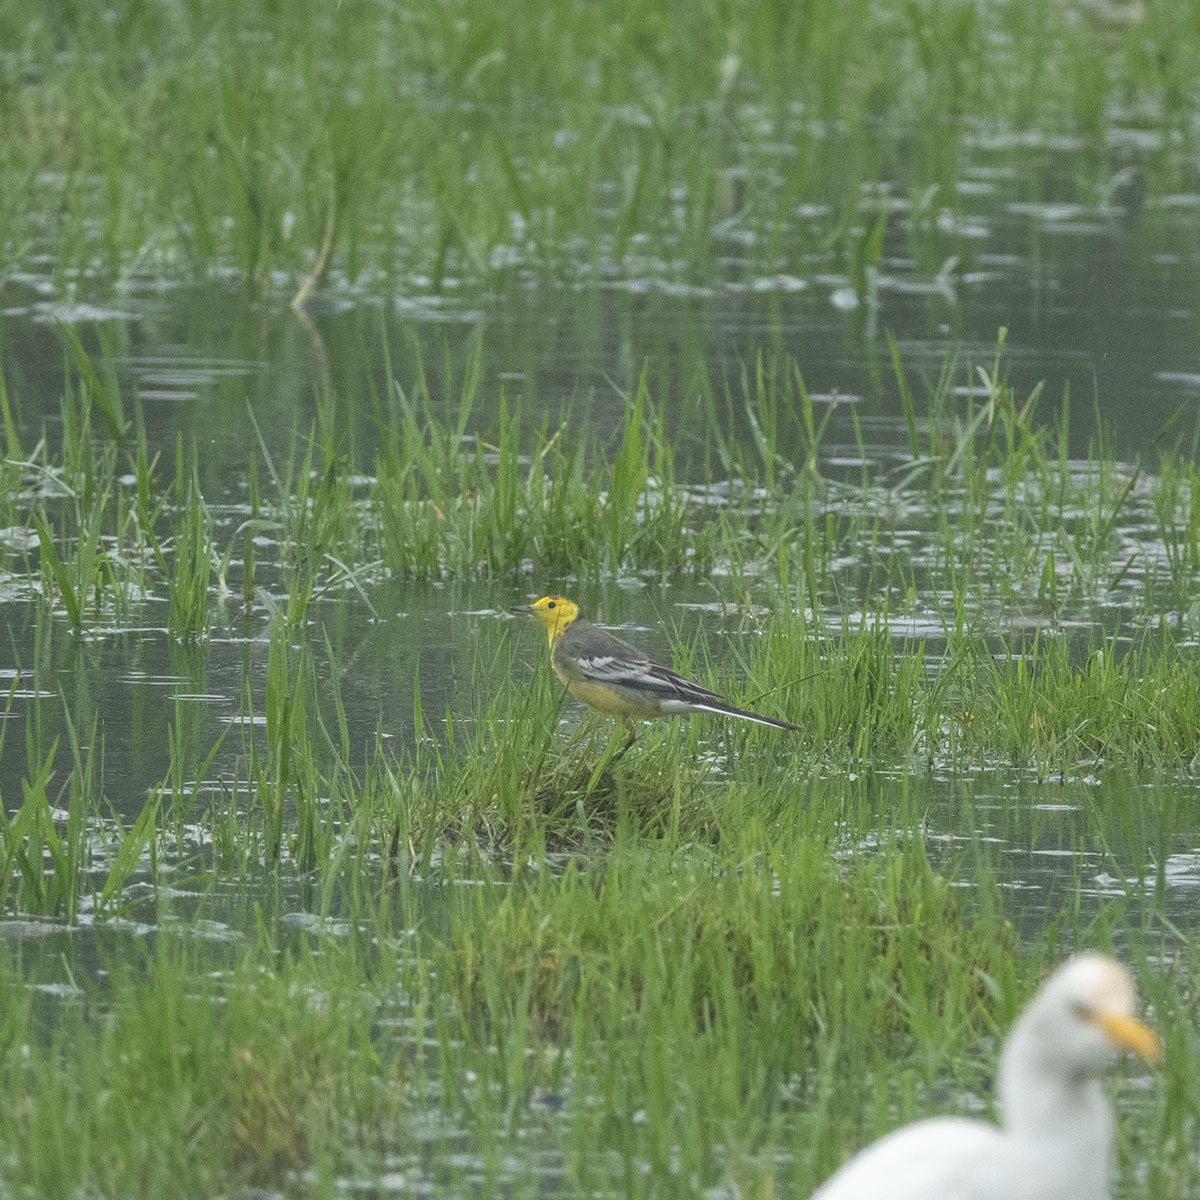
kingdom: Animalia
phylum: Chordata
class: Aves
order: Passeriformes
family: Motacillidae
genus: Motacilla
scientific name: Motacilla citreola
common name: Citrine wagtail
